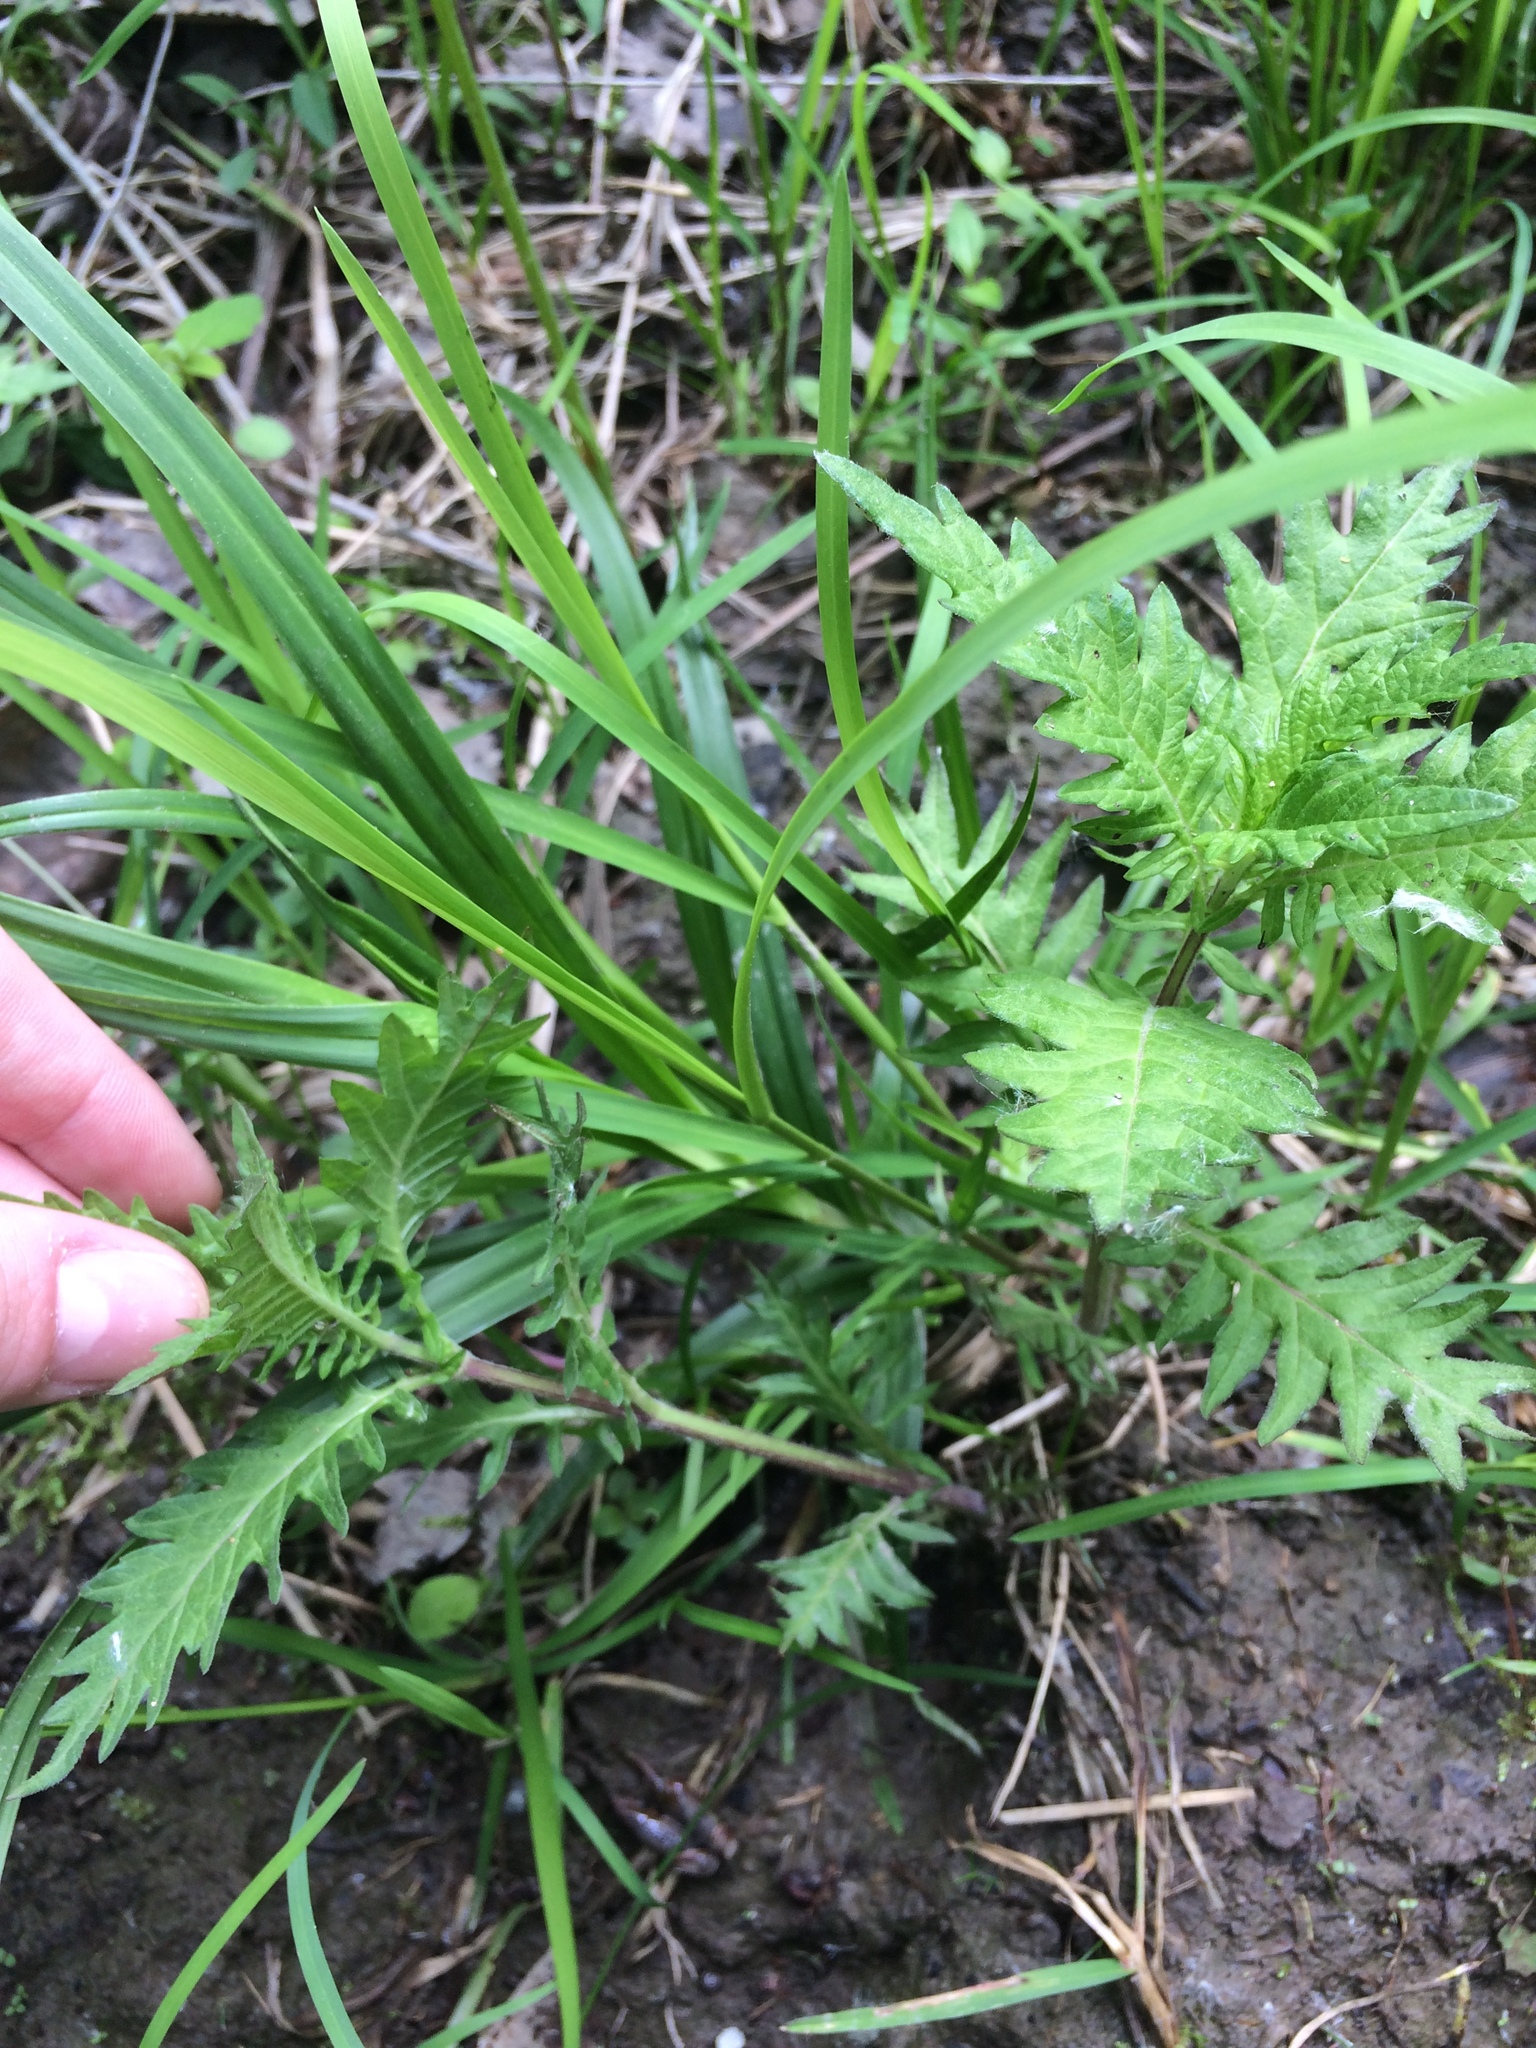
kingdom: Plantae
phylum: Tracheophyta
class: Magnoliopsida
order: Lamiales
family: Lamiaceae
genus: Lycopus
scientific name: Lycopus europaeus
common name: European bugleweed
